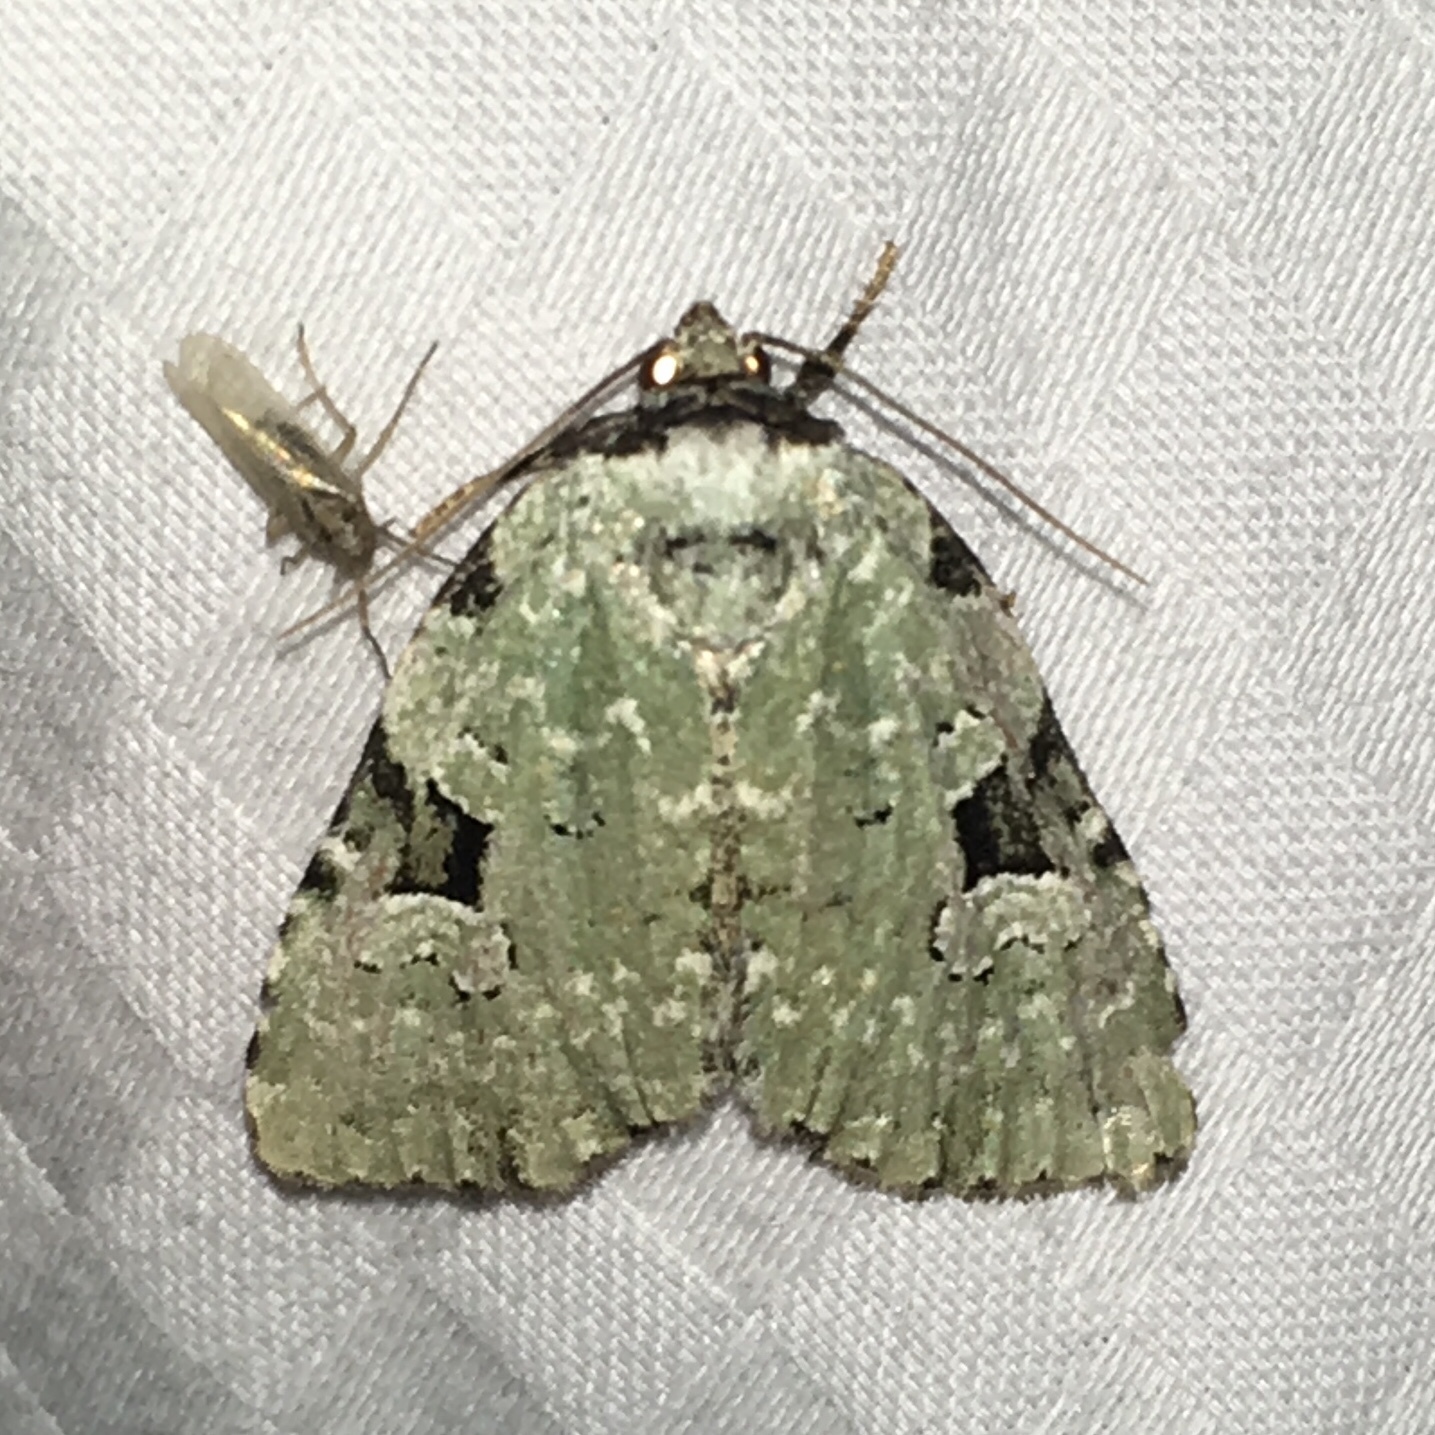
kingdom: Animalia
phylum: Arthropoda
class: Insecta
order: Lepidoptera
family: Noctuidae
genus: Leuconycta
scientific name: Leuconycta diphteroides
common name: Green leuconycta moth
